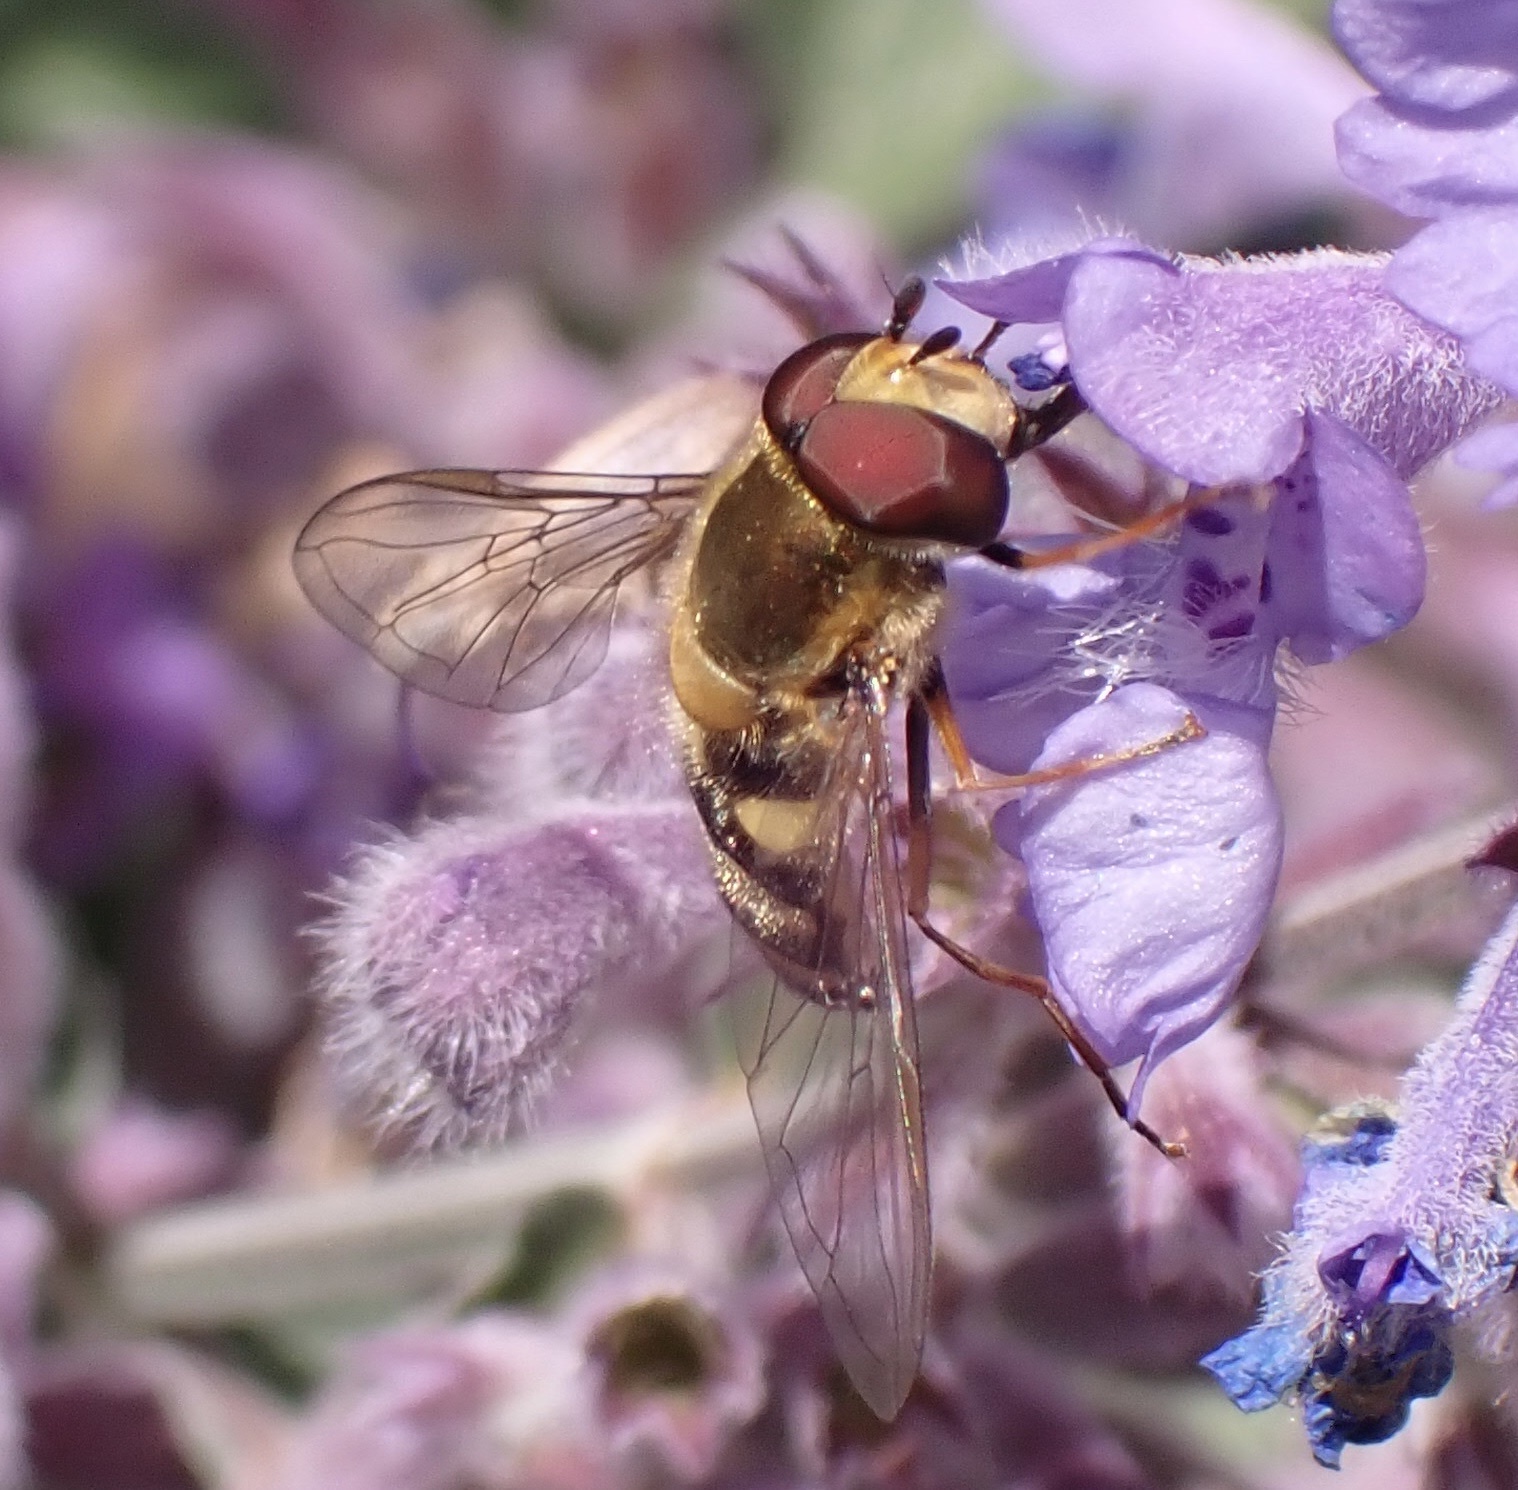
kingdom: Animalia
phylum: Arthropoda
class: Insecta
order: Diptera
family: Syrphidae
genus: Eupeodes
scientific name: Eupeodes
